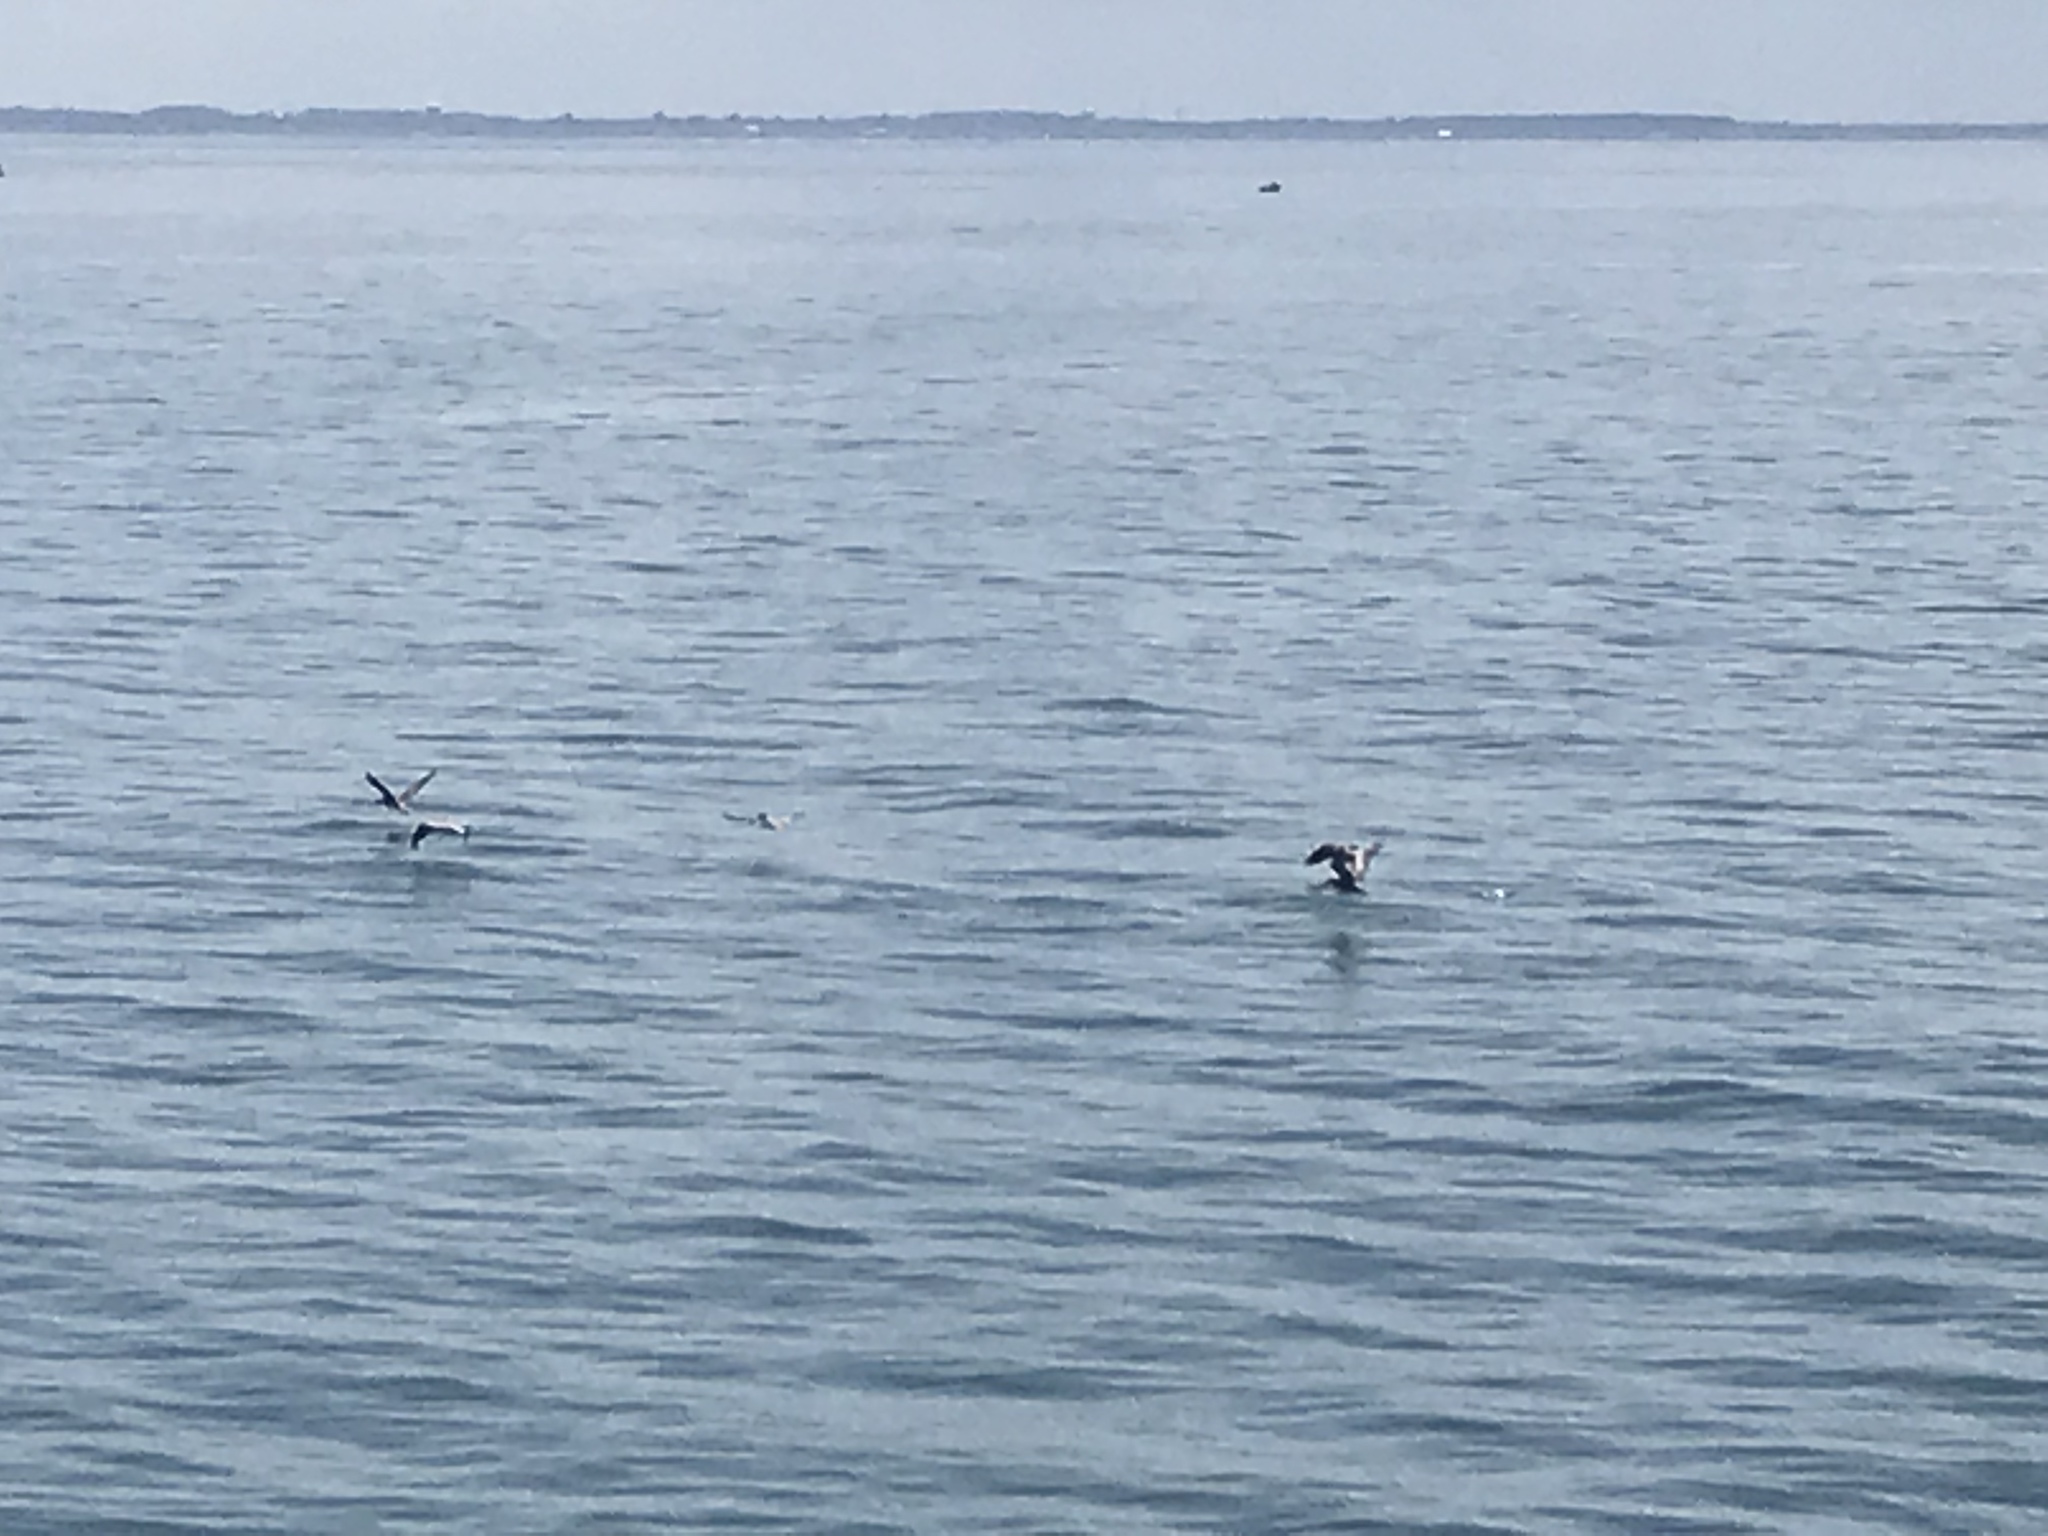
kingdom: Animalia
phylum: Chordata
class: Aves
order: Pelecaniformes
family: Pelecanidae
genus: Pelecanus
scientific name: Pelecanus occidentalis
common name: Brown pelican
